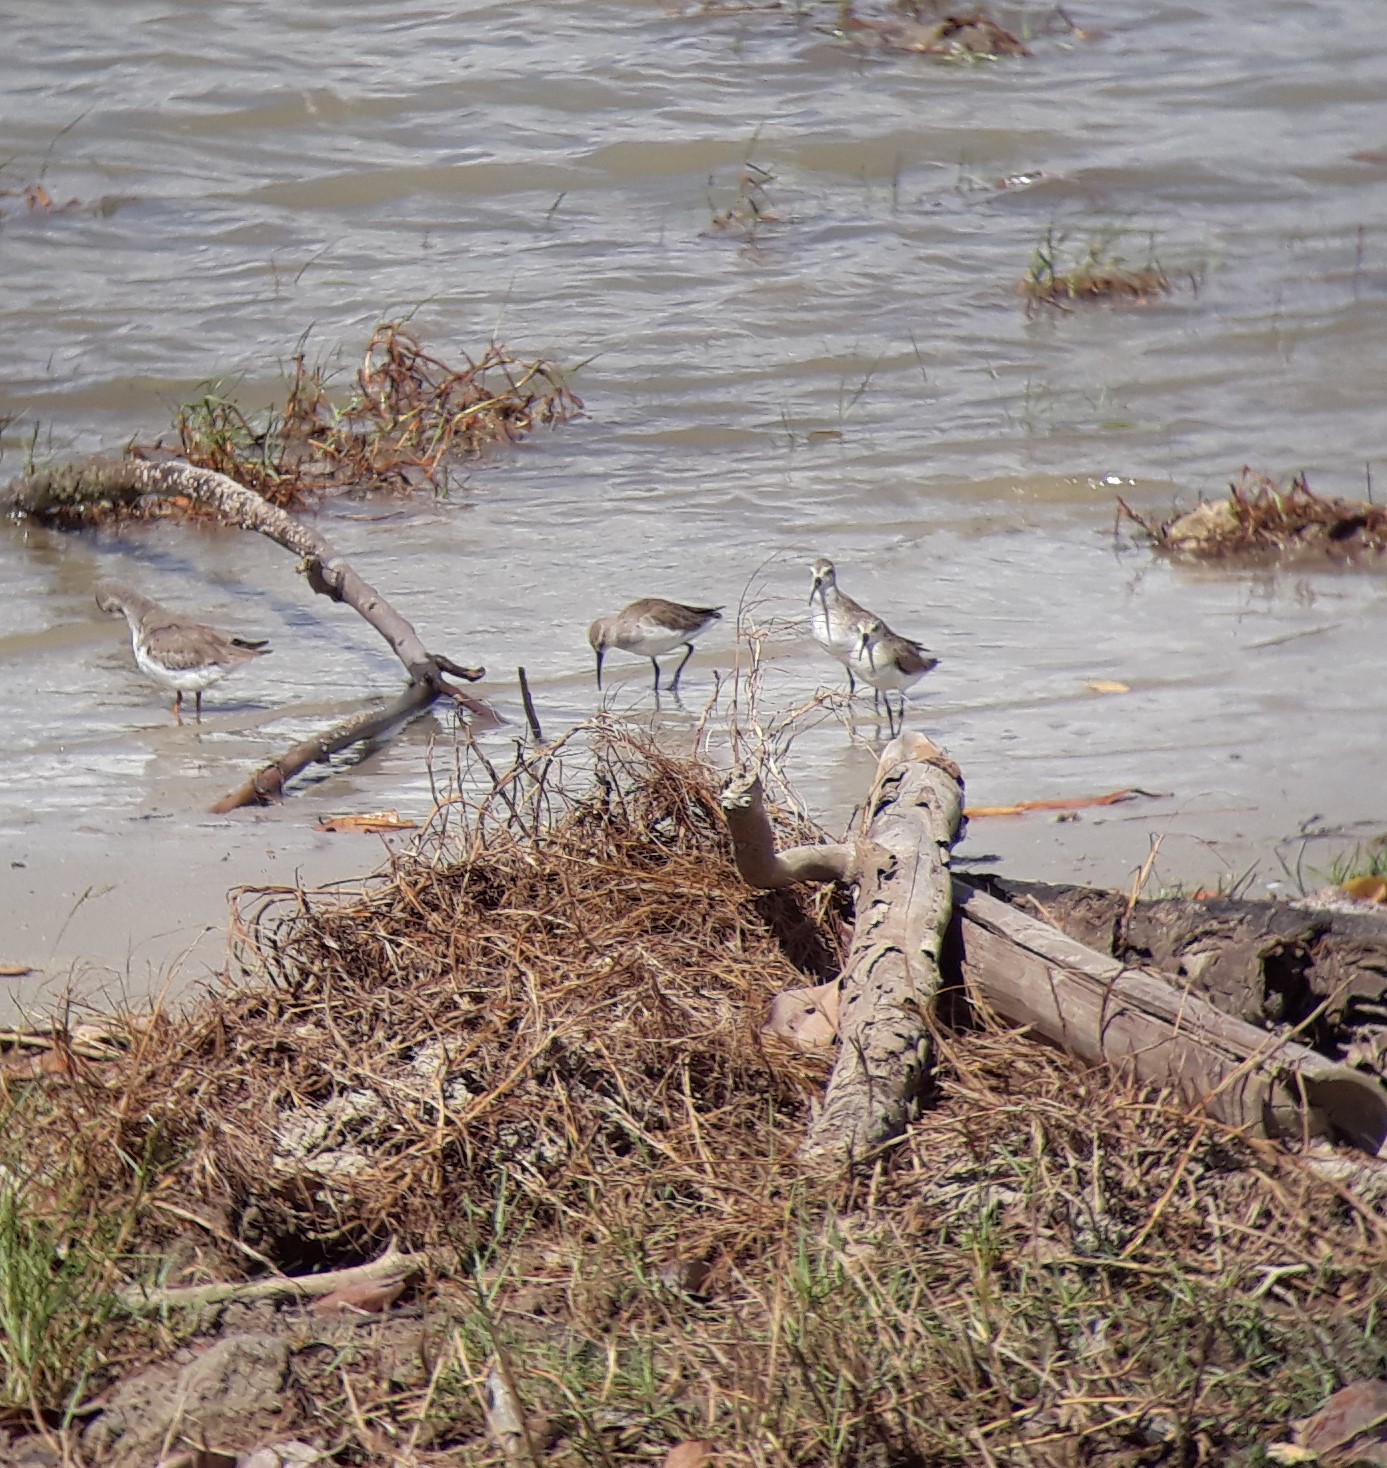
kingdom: Animalia
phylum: Chordata
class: Aves
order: Charadriiformes
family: Scolopacidae
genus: Calidris
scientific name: Calidris ferruginea
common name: Curlew sandpiper
